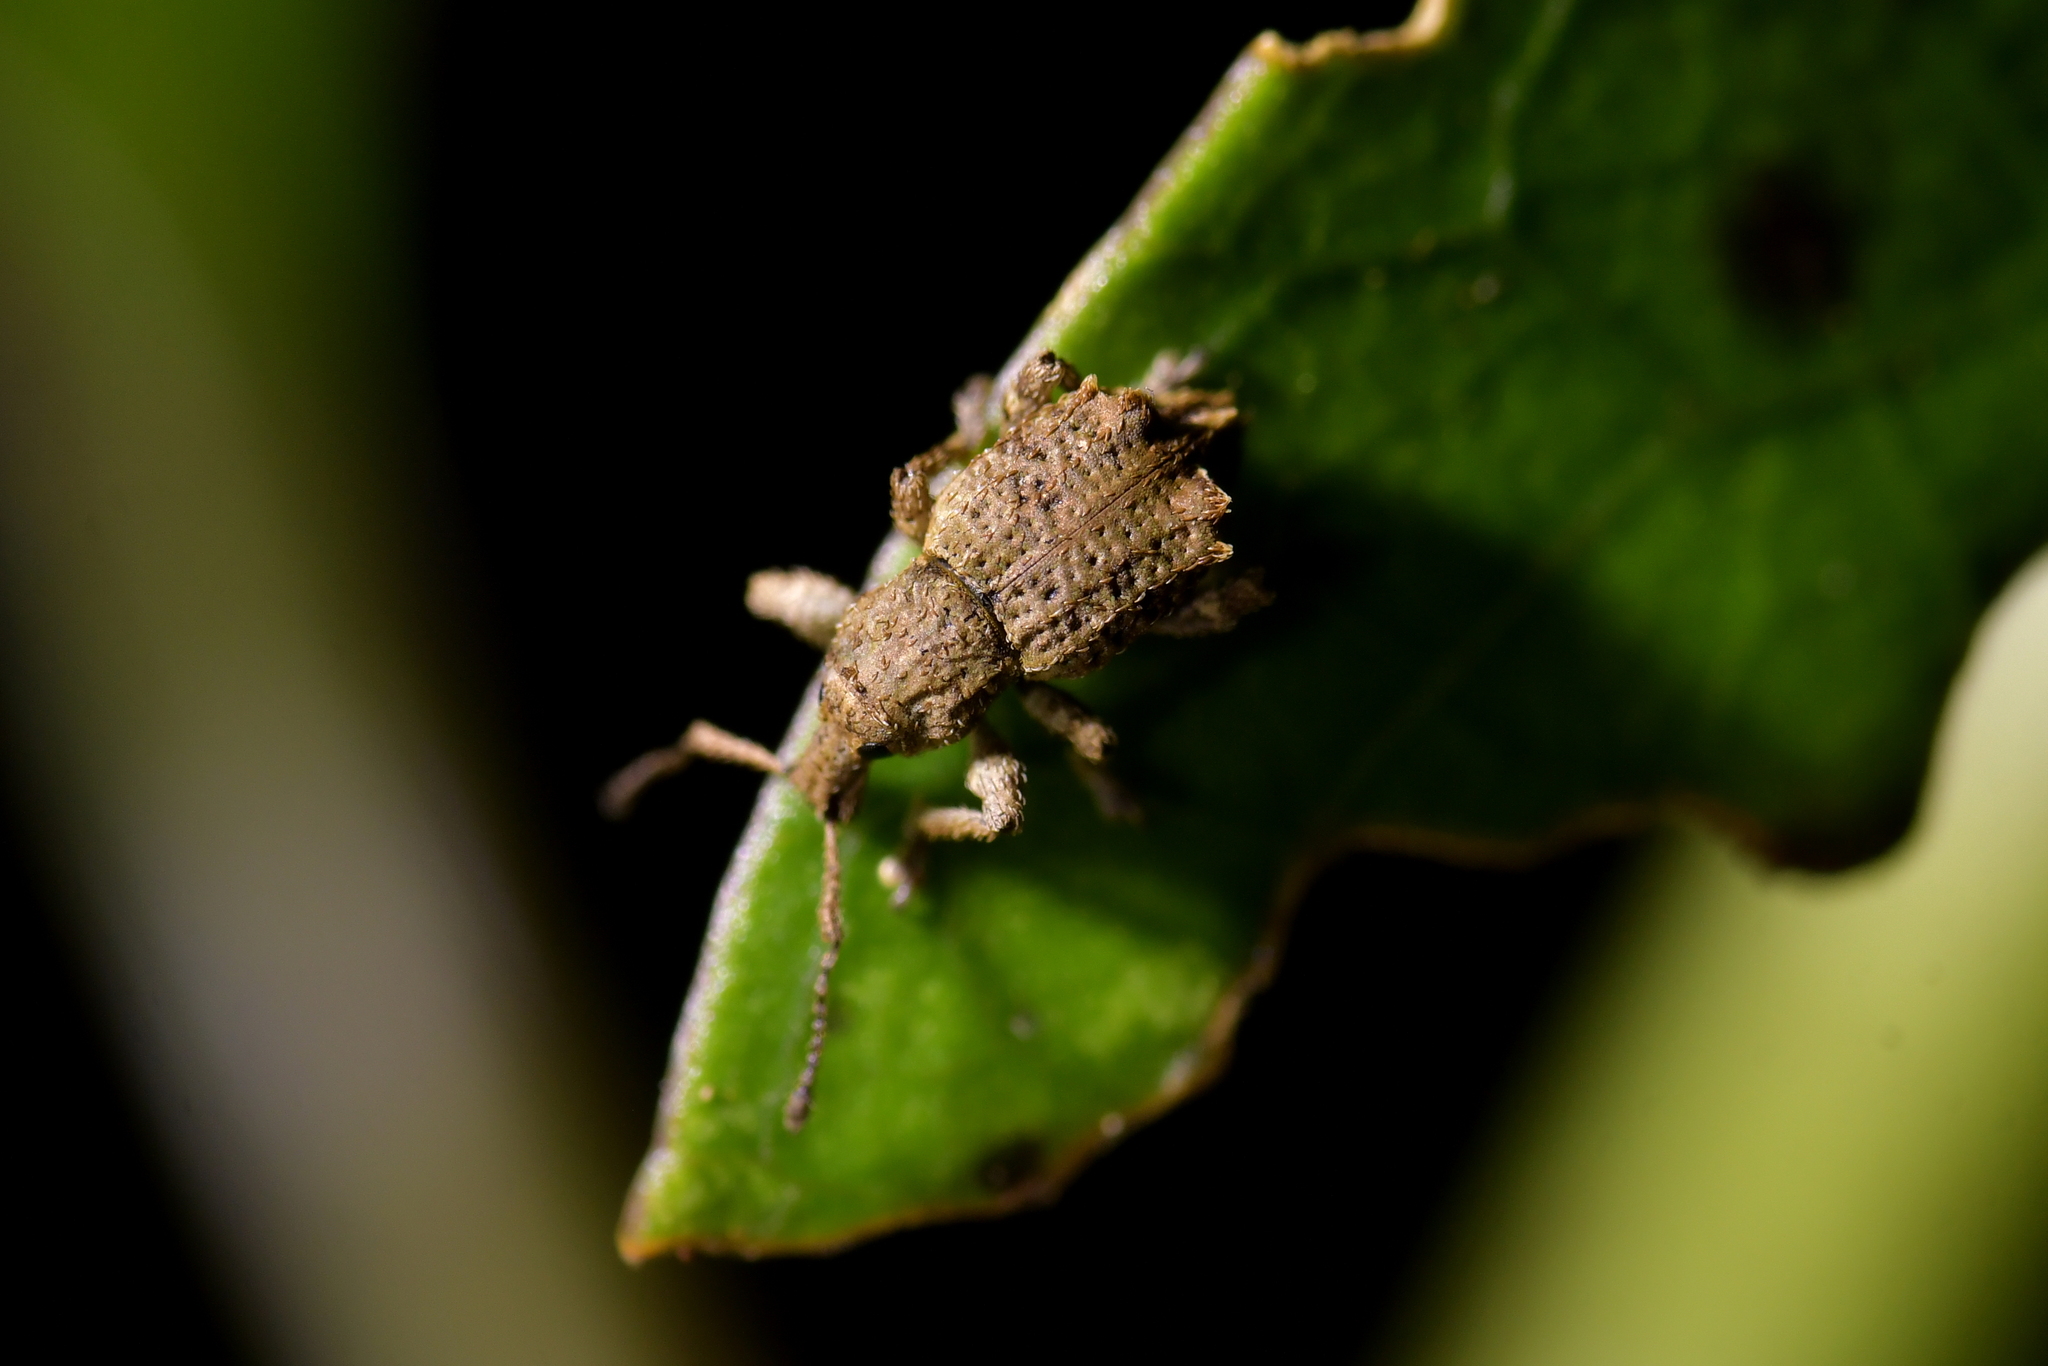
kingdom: Animalia
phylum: Arthropoda
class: Insecta
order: Coleoptera
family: Curculionidae
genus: Chalepistes
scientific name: Chalepistes costifer
